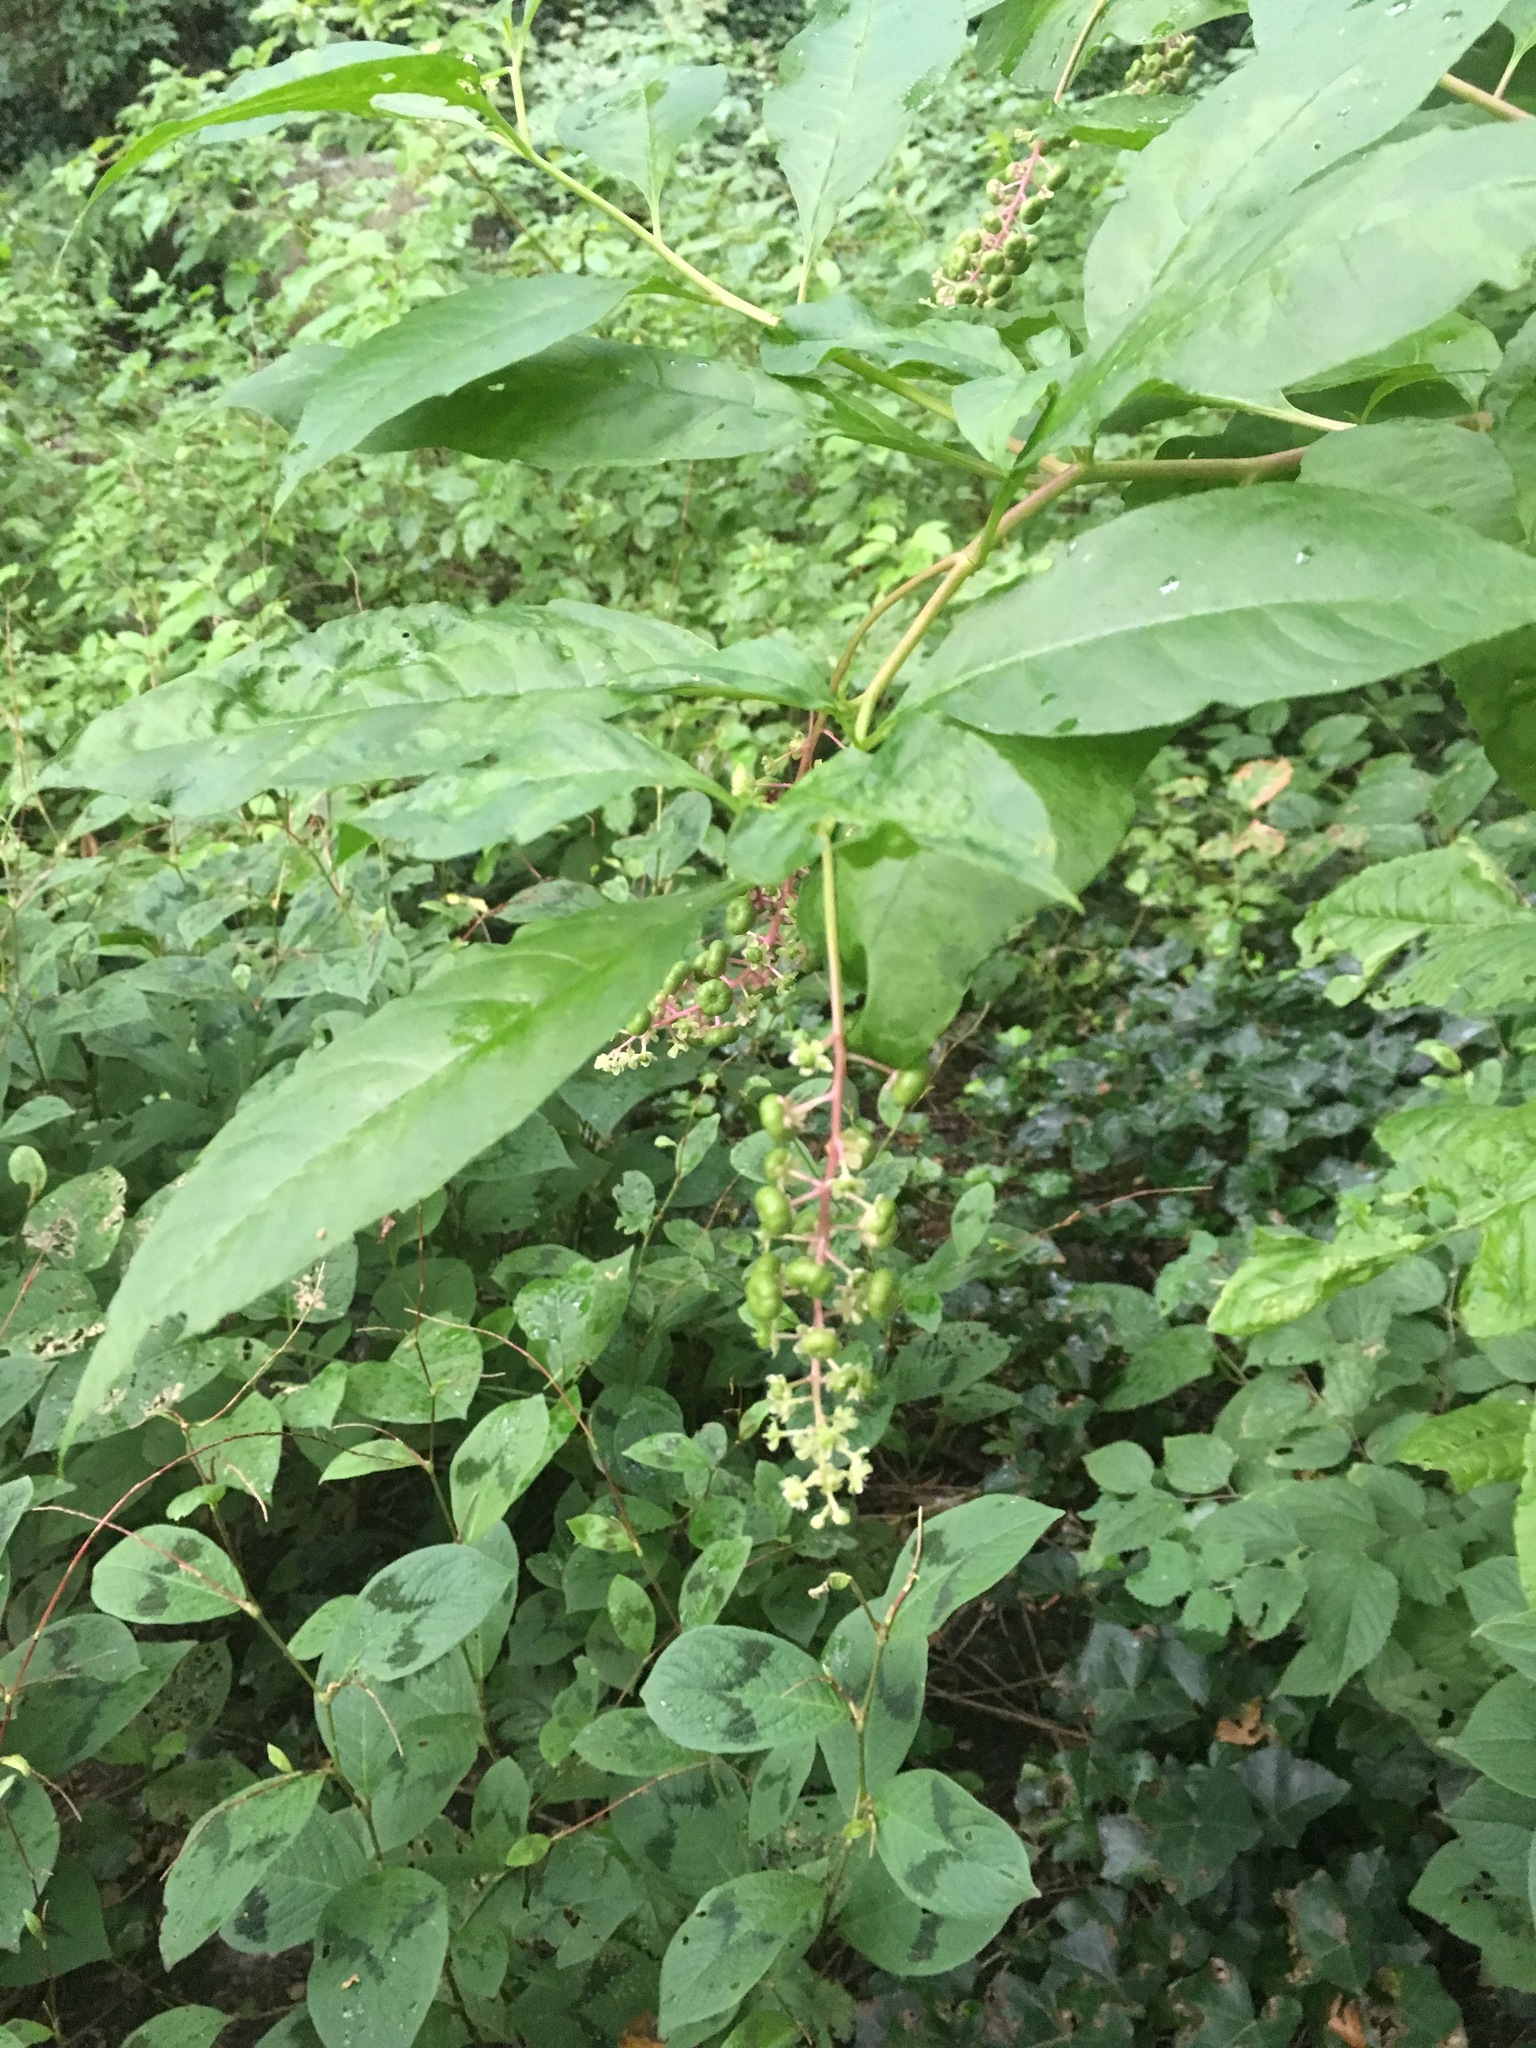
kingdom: Plantae
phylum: Tracheophyta
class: Magnoliopsida
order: Caryophyllales
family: Phytolaccaceae
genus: Phytolacca
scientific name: Phytolacca americana
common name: American pokeweed
